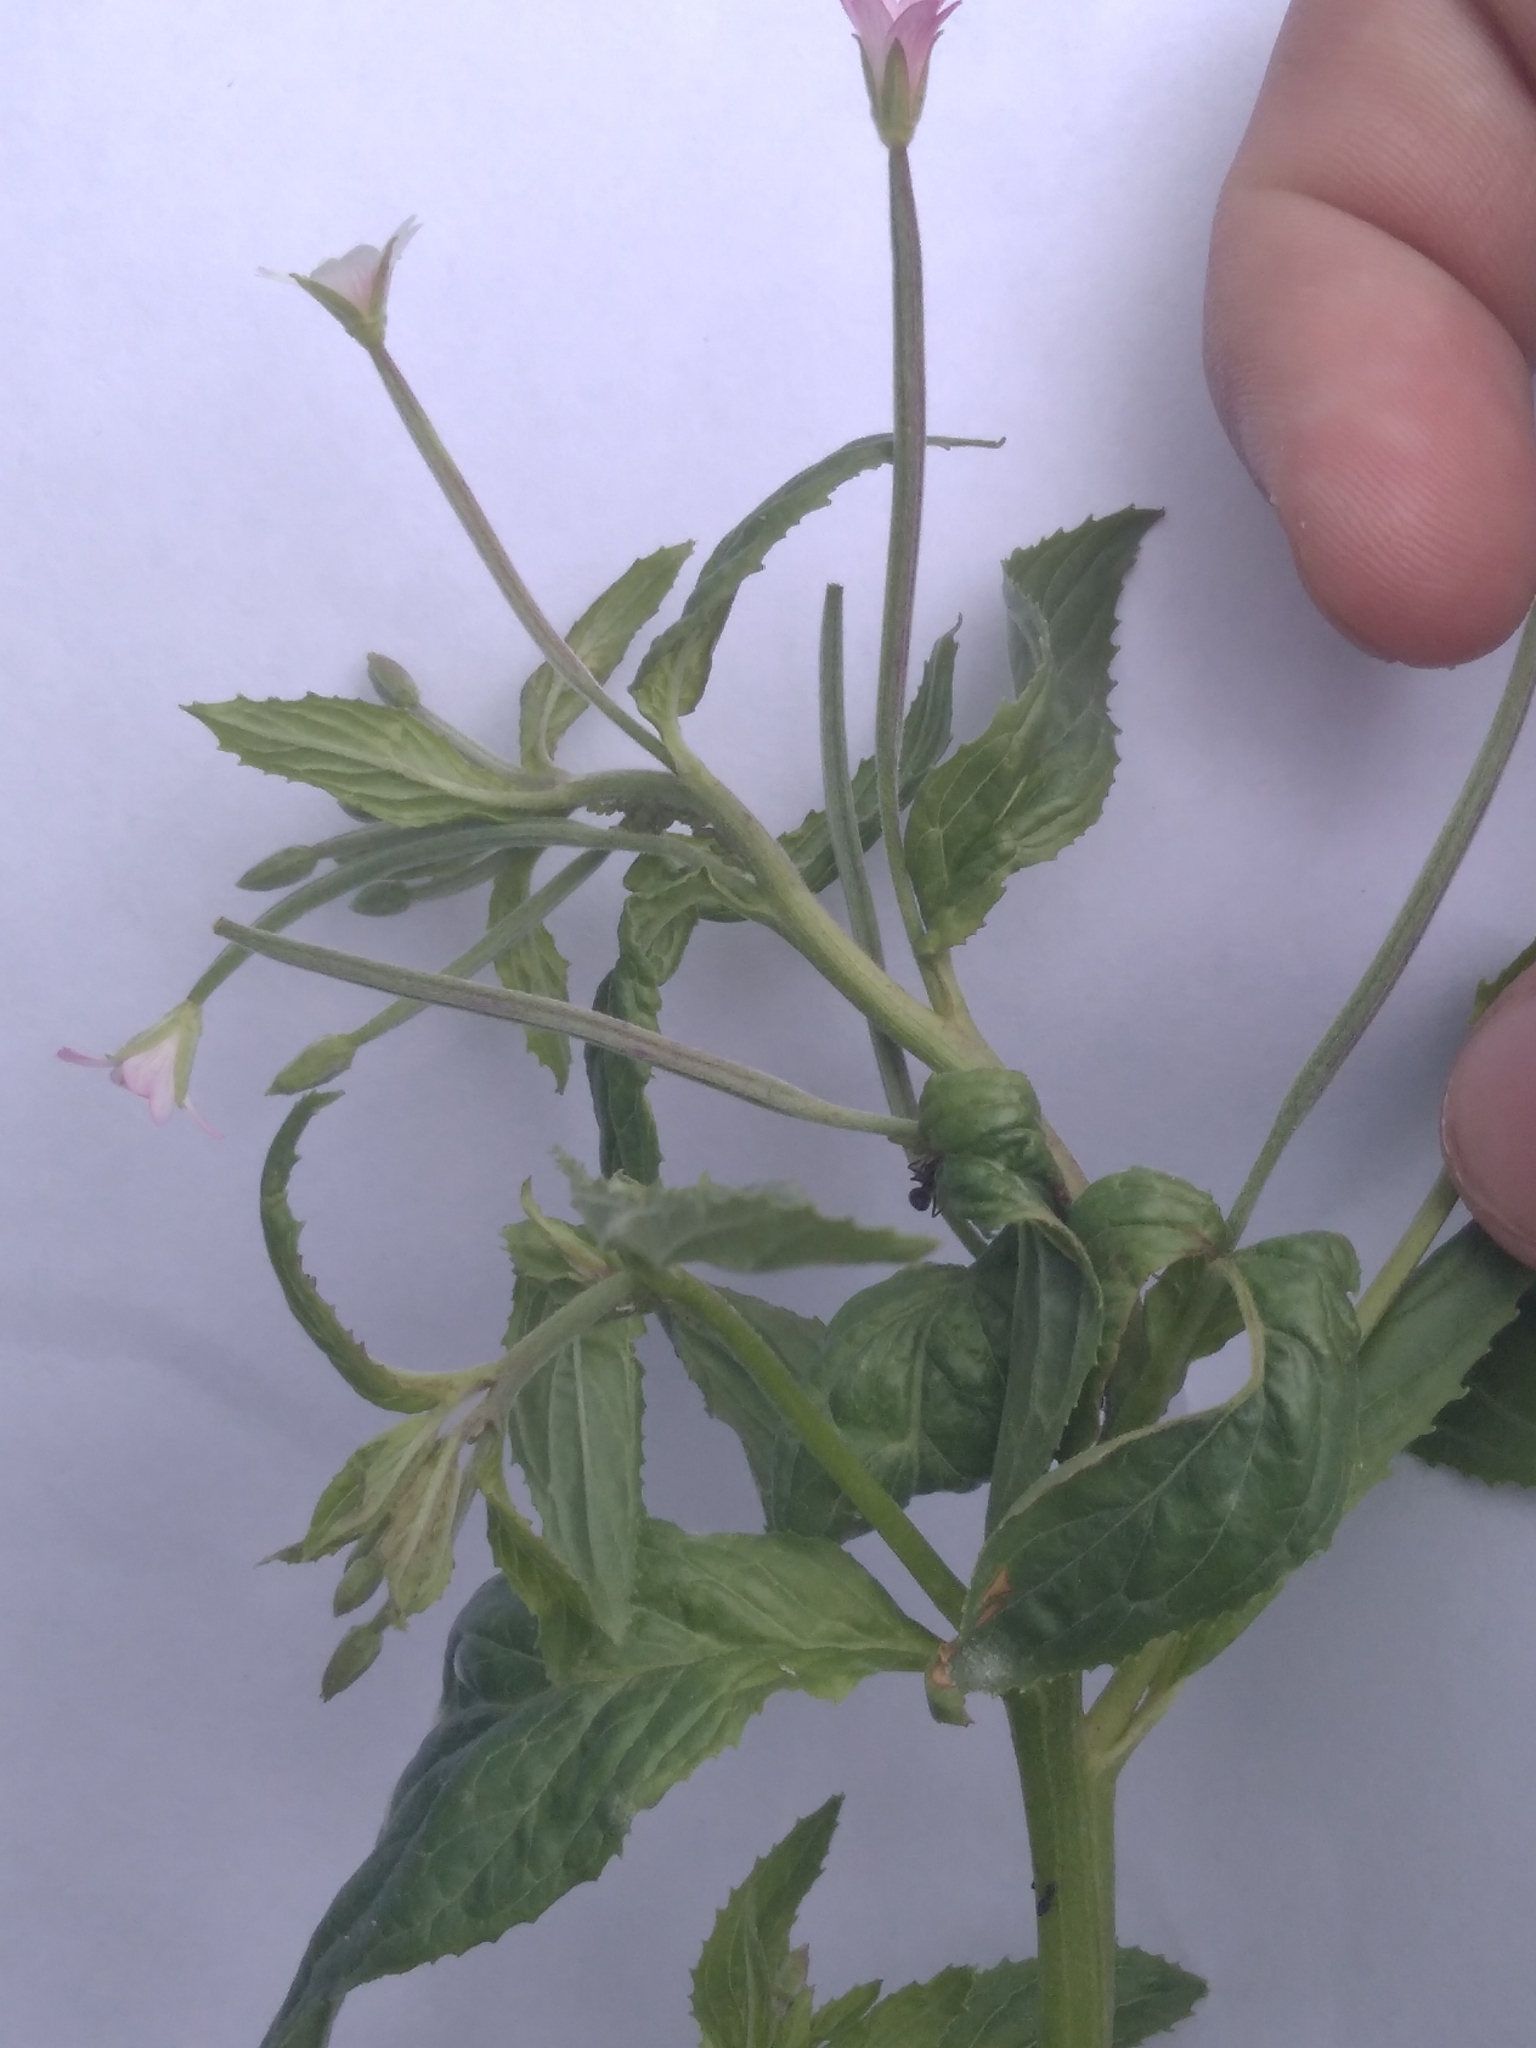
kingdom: Plantae
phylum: Tracheophyta
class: Magnoliopsida
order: Myrtales
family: Onagraceae
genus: Epilobium
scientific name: Epilobium ciliatum
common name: American willowherb
